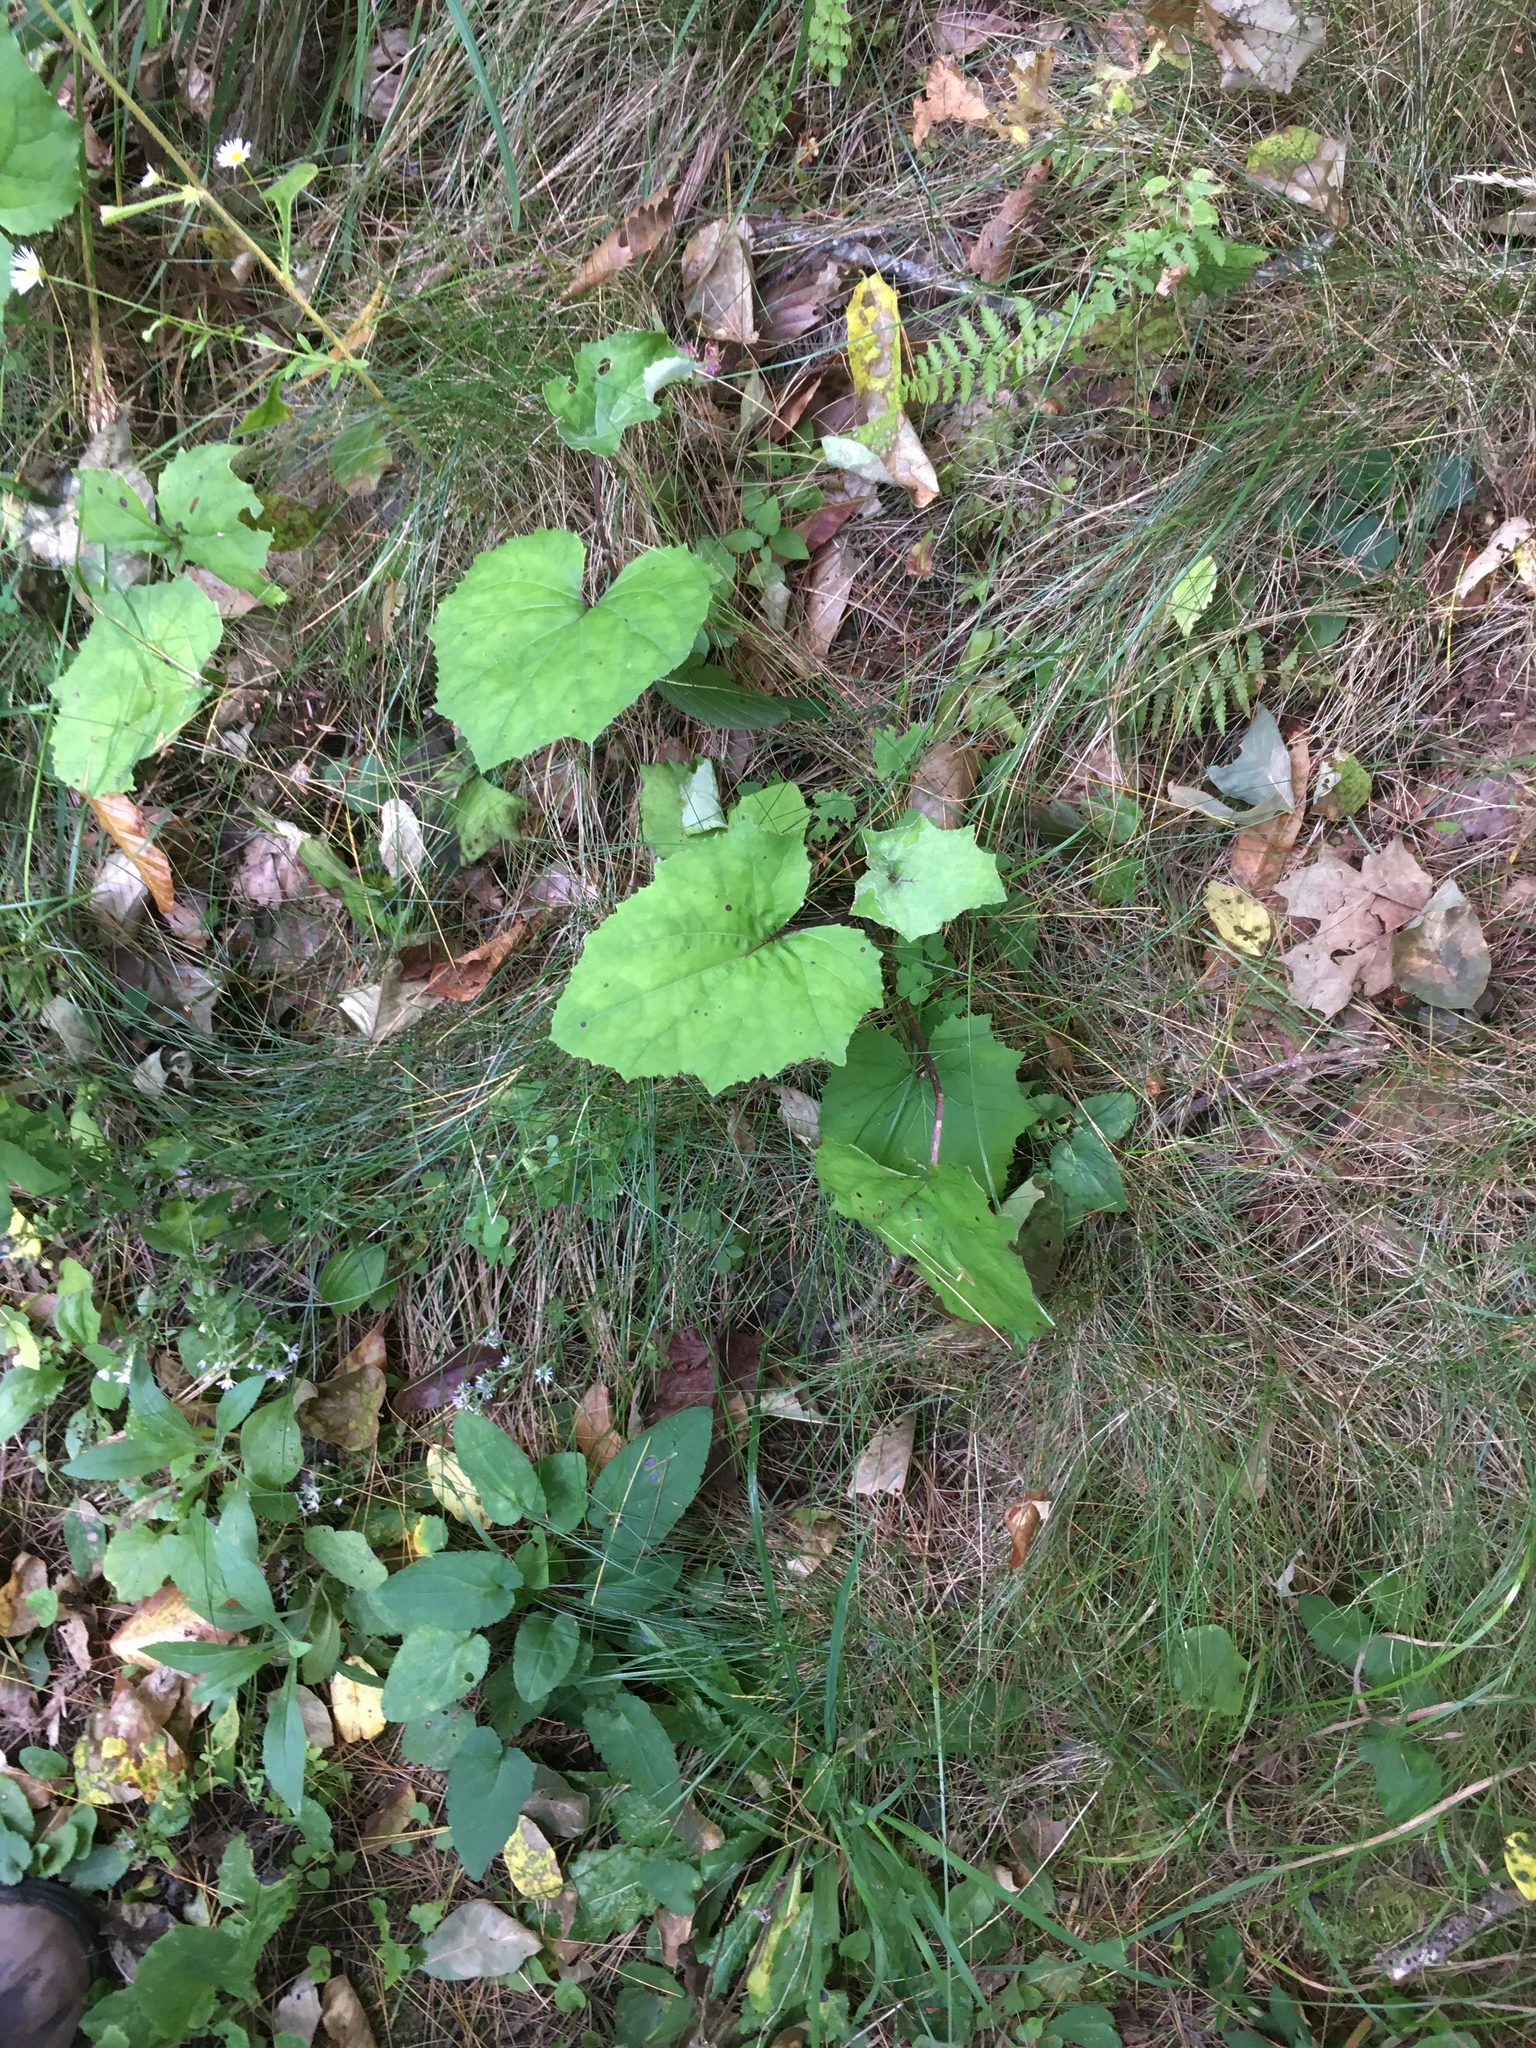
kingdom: Plantae
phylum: Tracheophyta
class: Magnoliopsida
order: Asterales
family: Asteraceae
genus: Tussilago
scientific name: Tussilago farfara
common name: Coltsfoot
